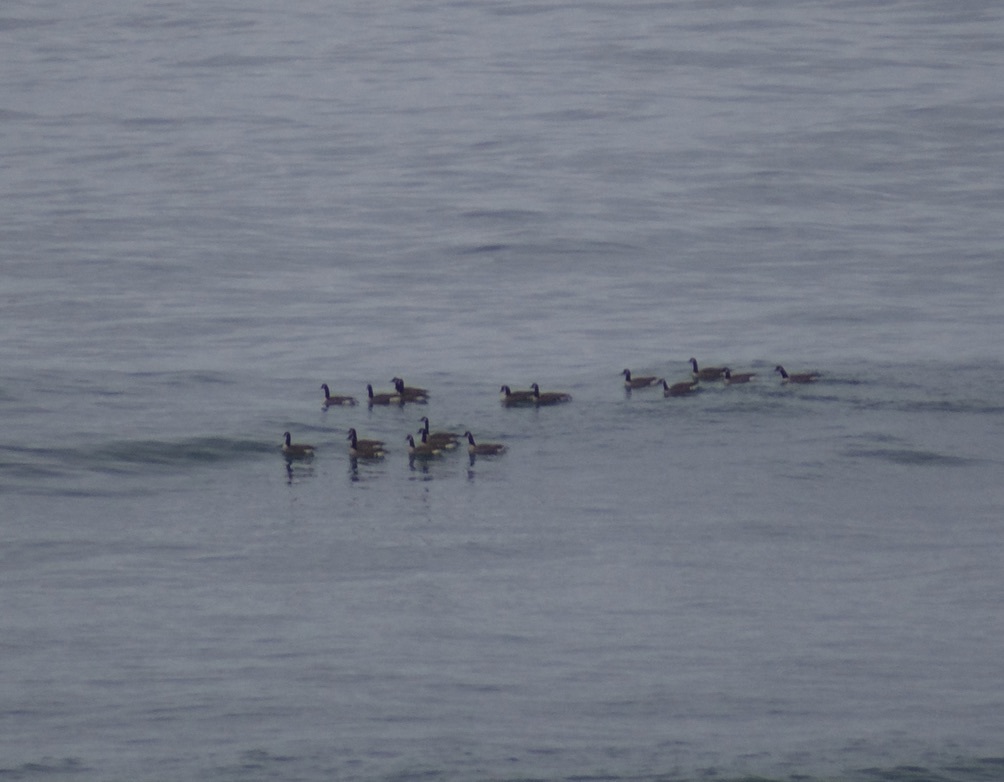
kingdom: Animalia
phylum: Chordata
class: Aves
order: Anseriformes
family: Anatidae
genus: Branta
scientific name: Branta canadensis
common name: Canada goose
